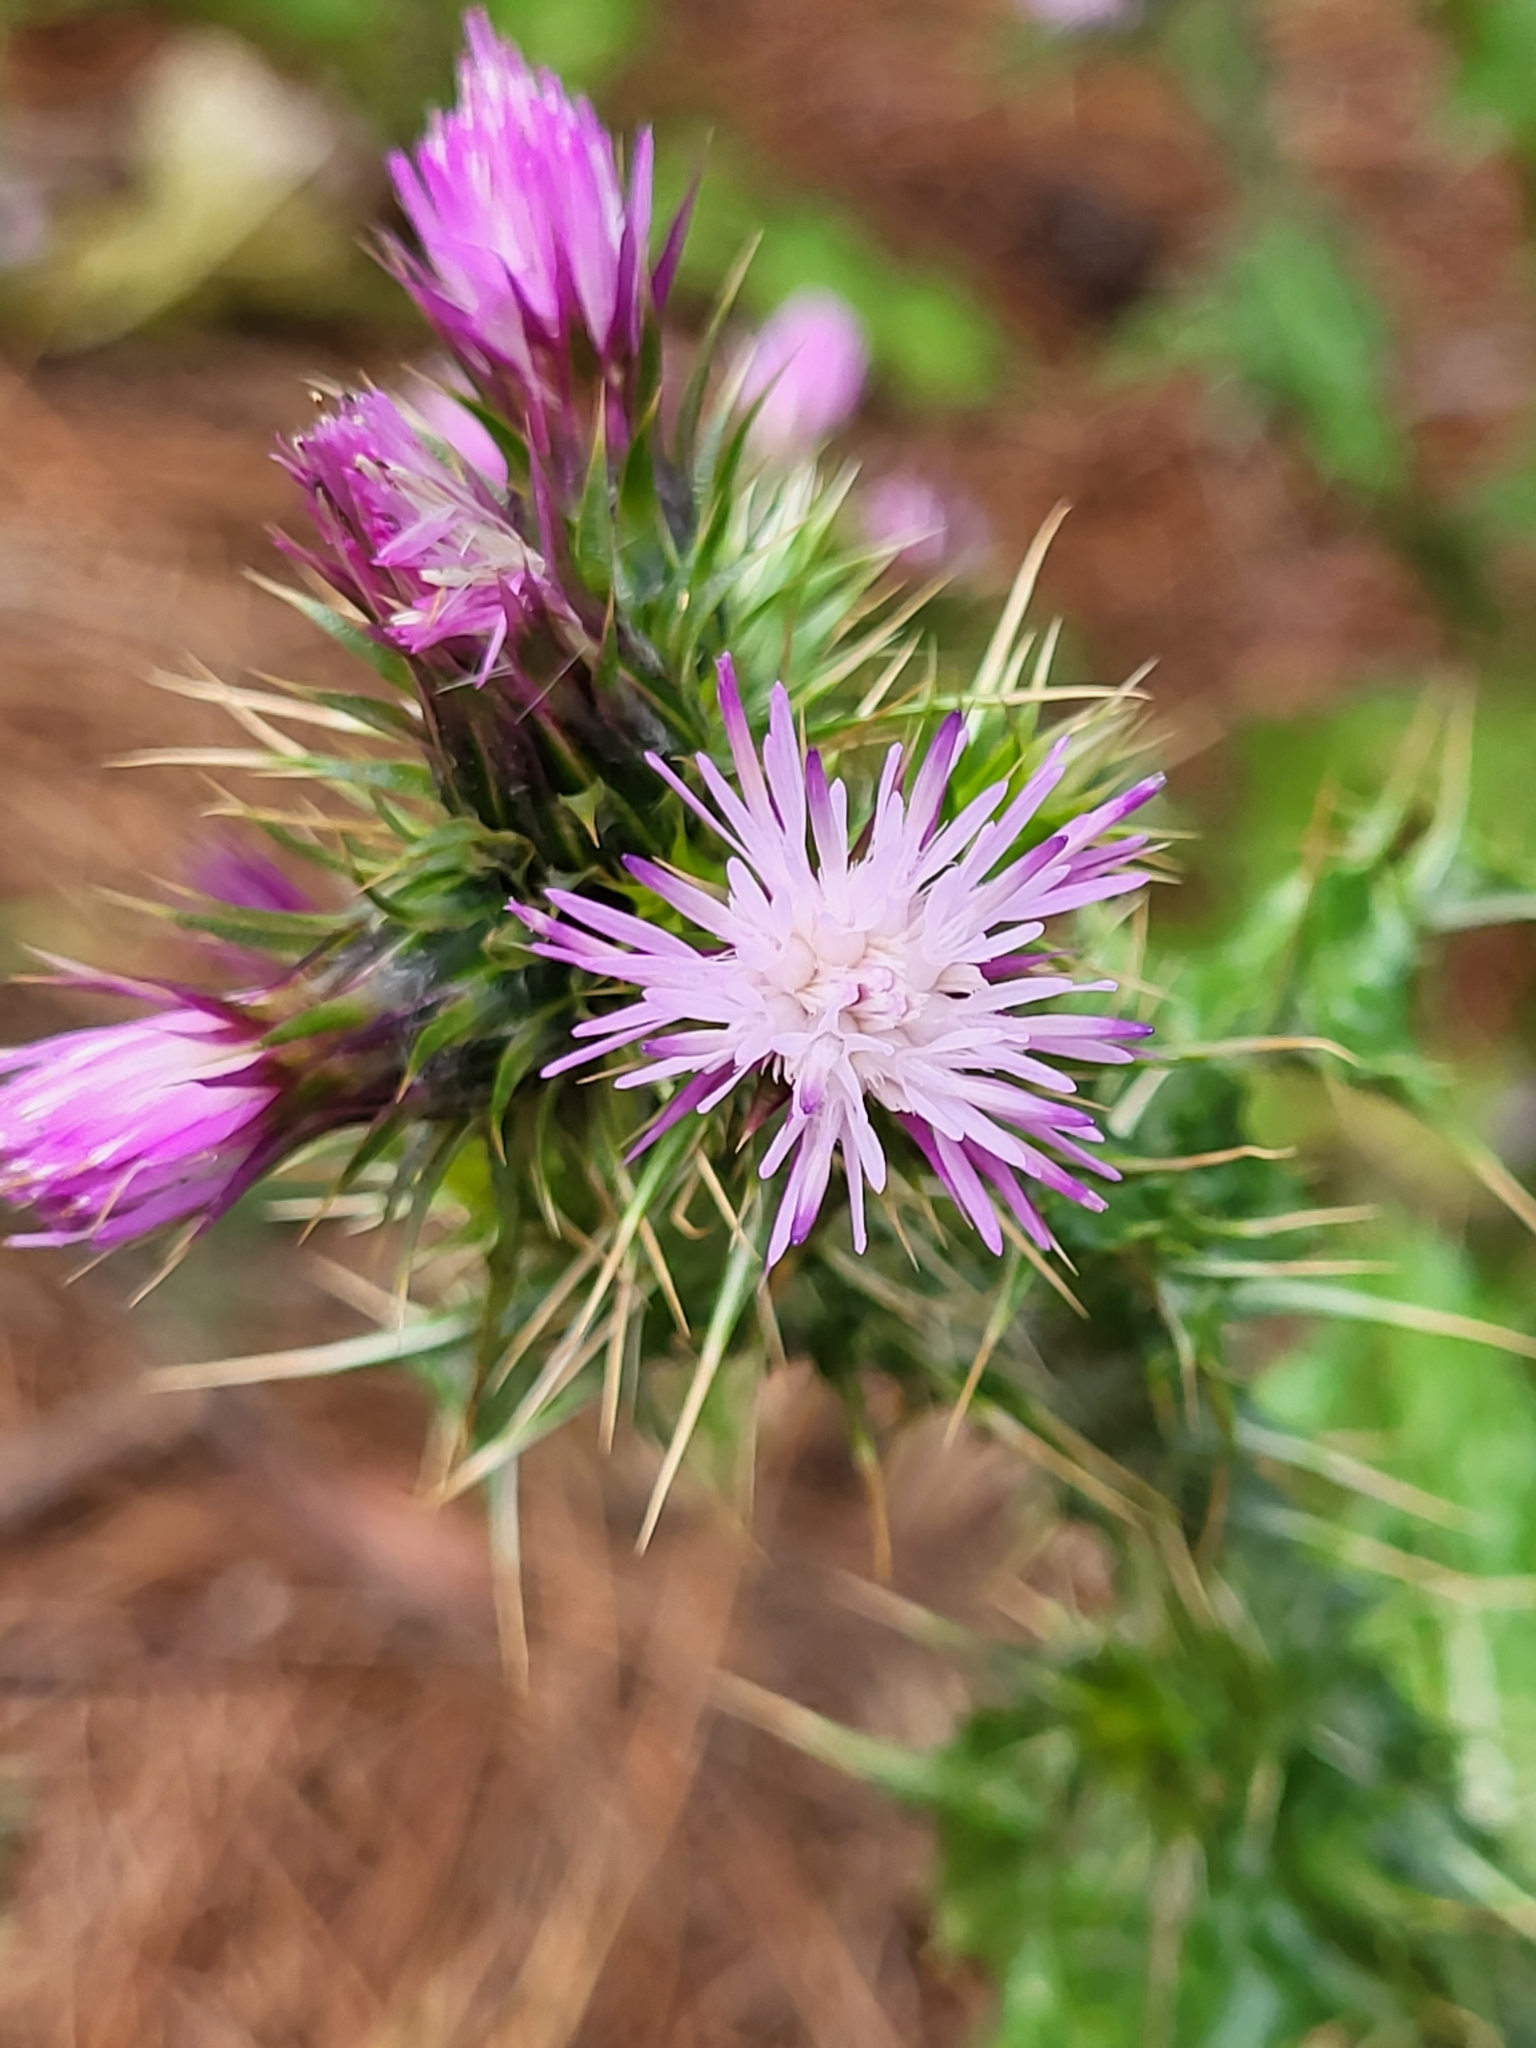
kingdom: Plantae
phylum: Tracheophyta
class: Magnoliopsida
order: Asterales
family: Asteraceae
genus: Carduus
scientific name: Carduus tenuiflorus
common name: Slender thistle
